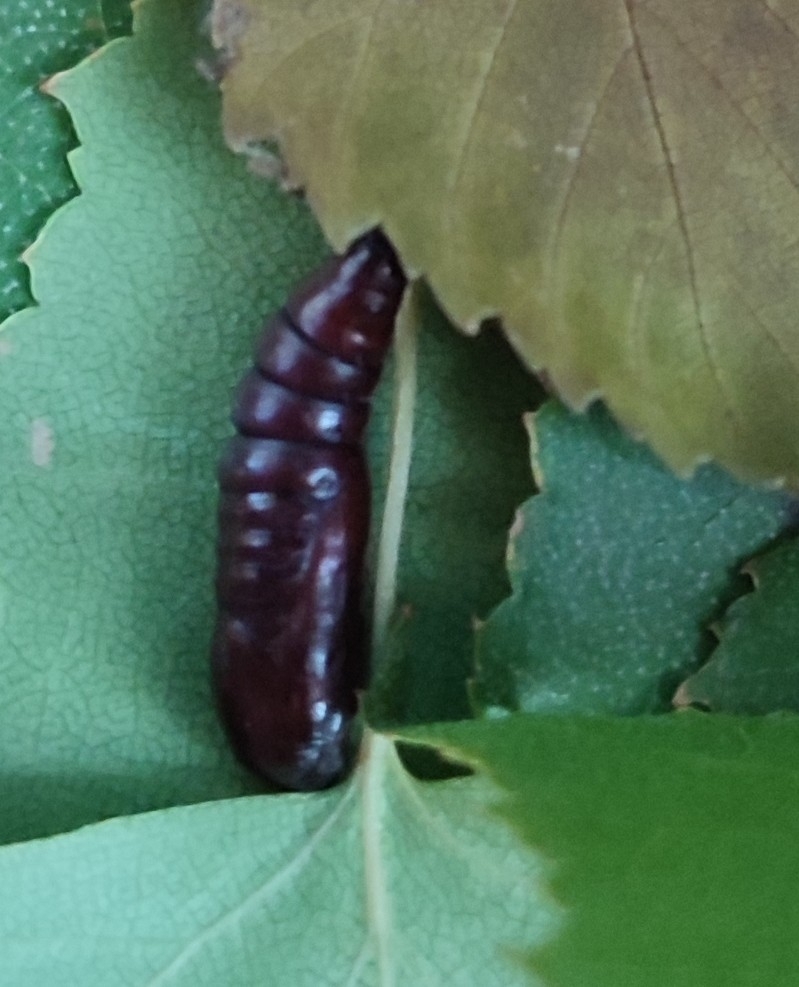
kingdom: Animalia
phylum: Arthropoda
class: Insecta
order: Lepidoptera
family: Noctuidae
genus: Acronicta
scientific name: Acronicta alni
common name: Alder moth
